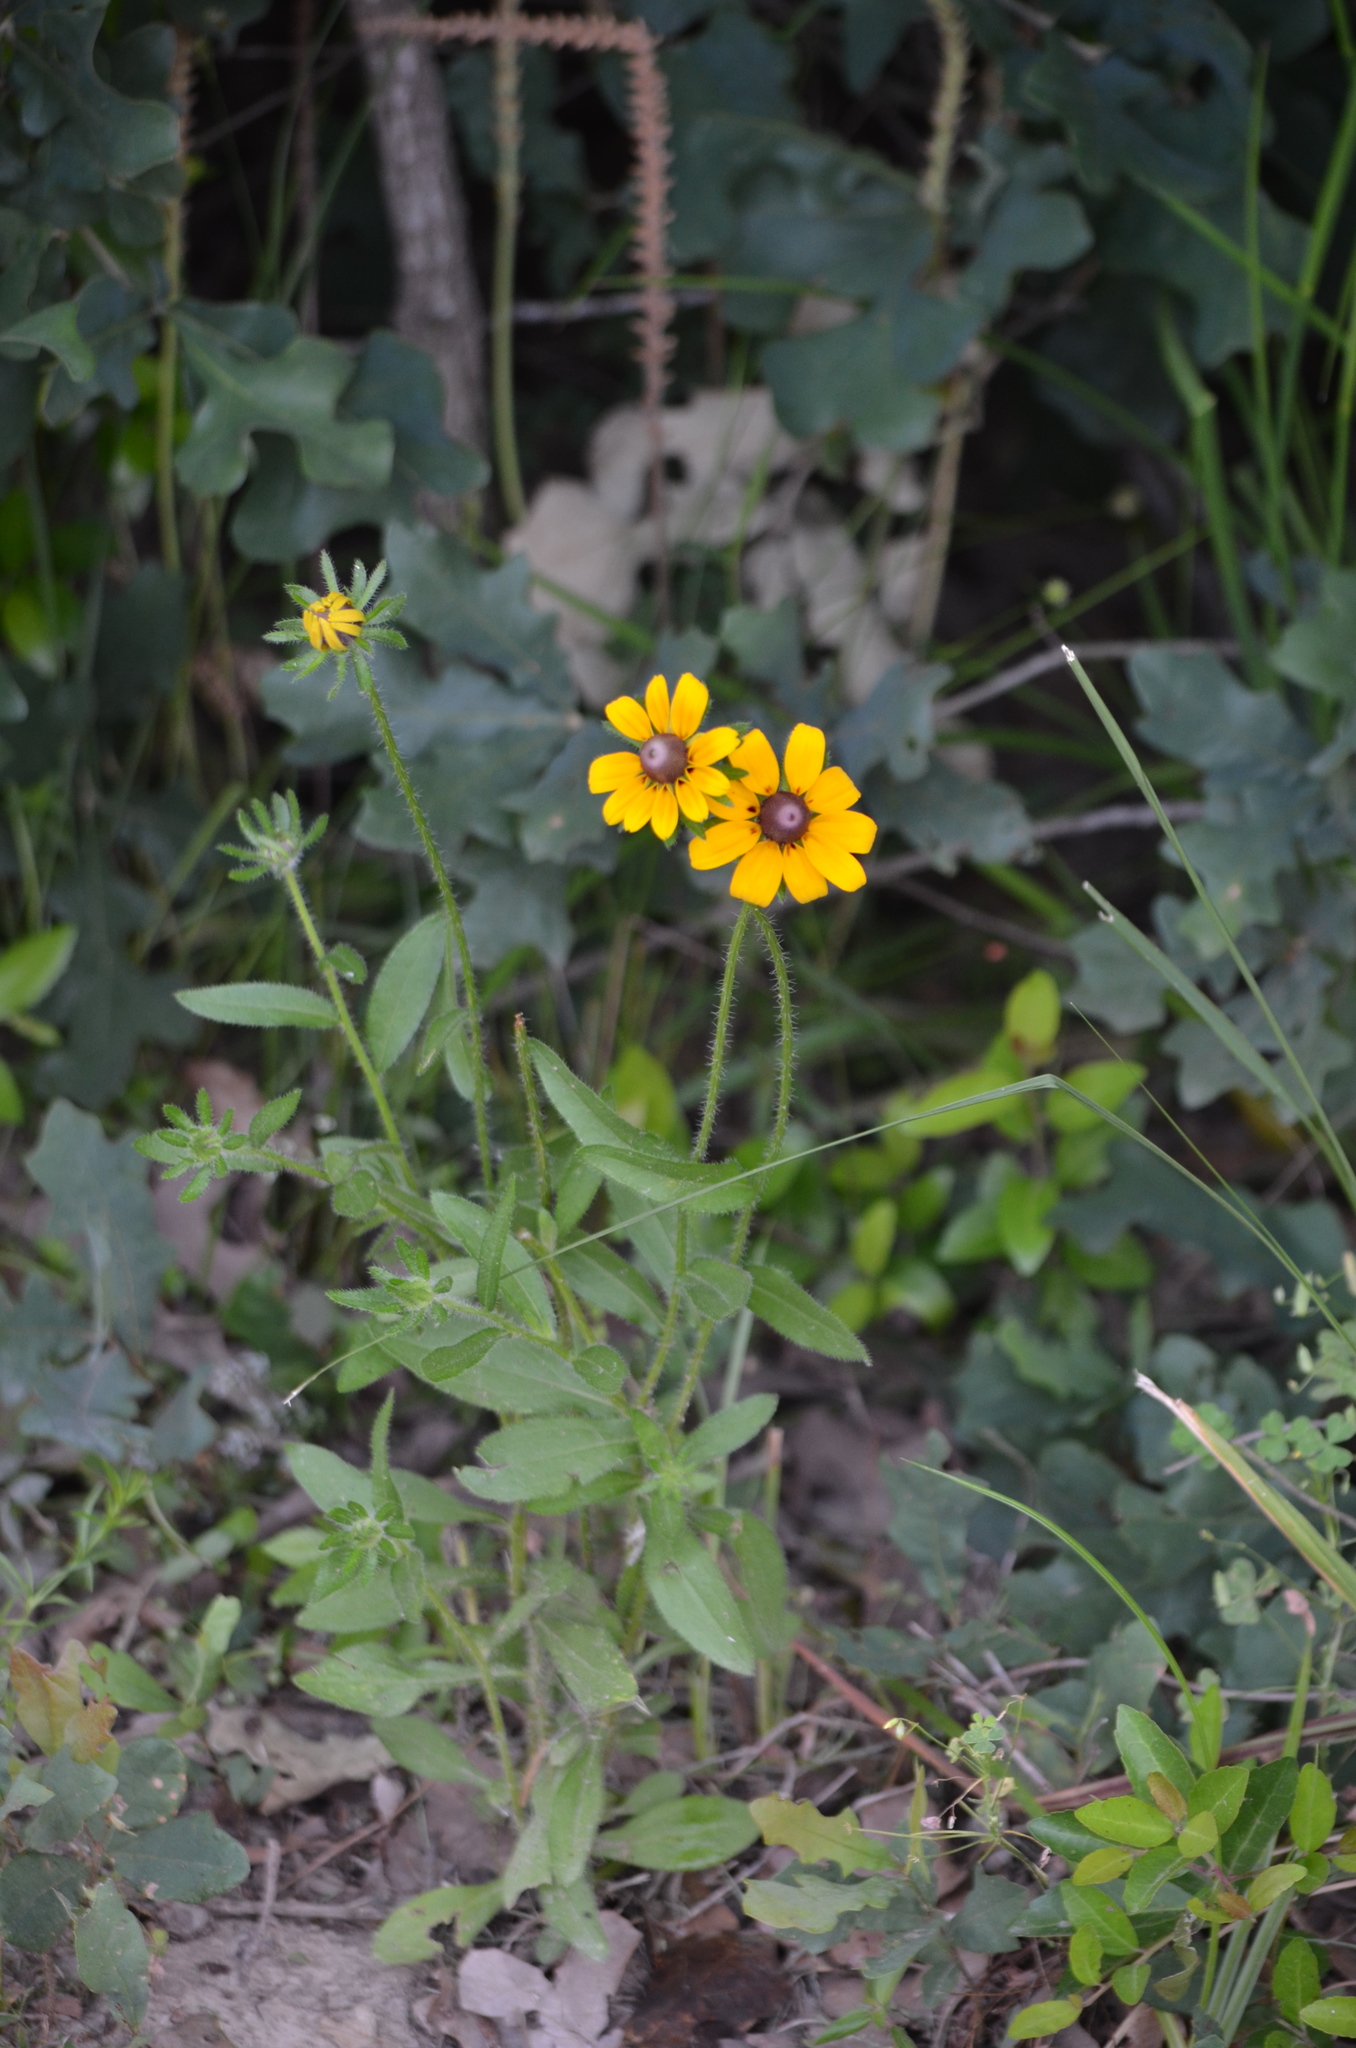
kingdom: Plantae
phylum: Tracheophyta
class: Magnoliopsida
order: Asterales
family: Asteraceae
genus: Rudbeckia
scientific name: Rudbeckia hirta
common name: Black-eyed-susan
